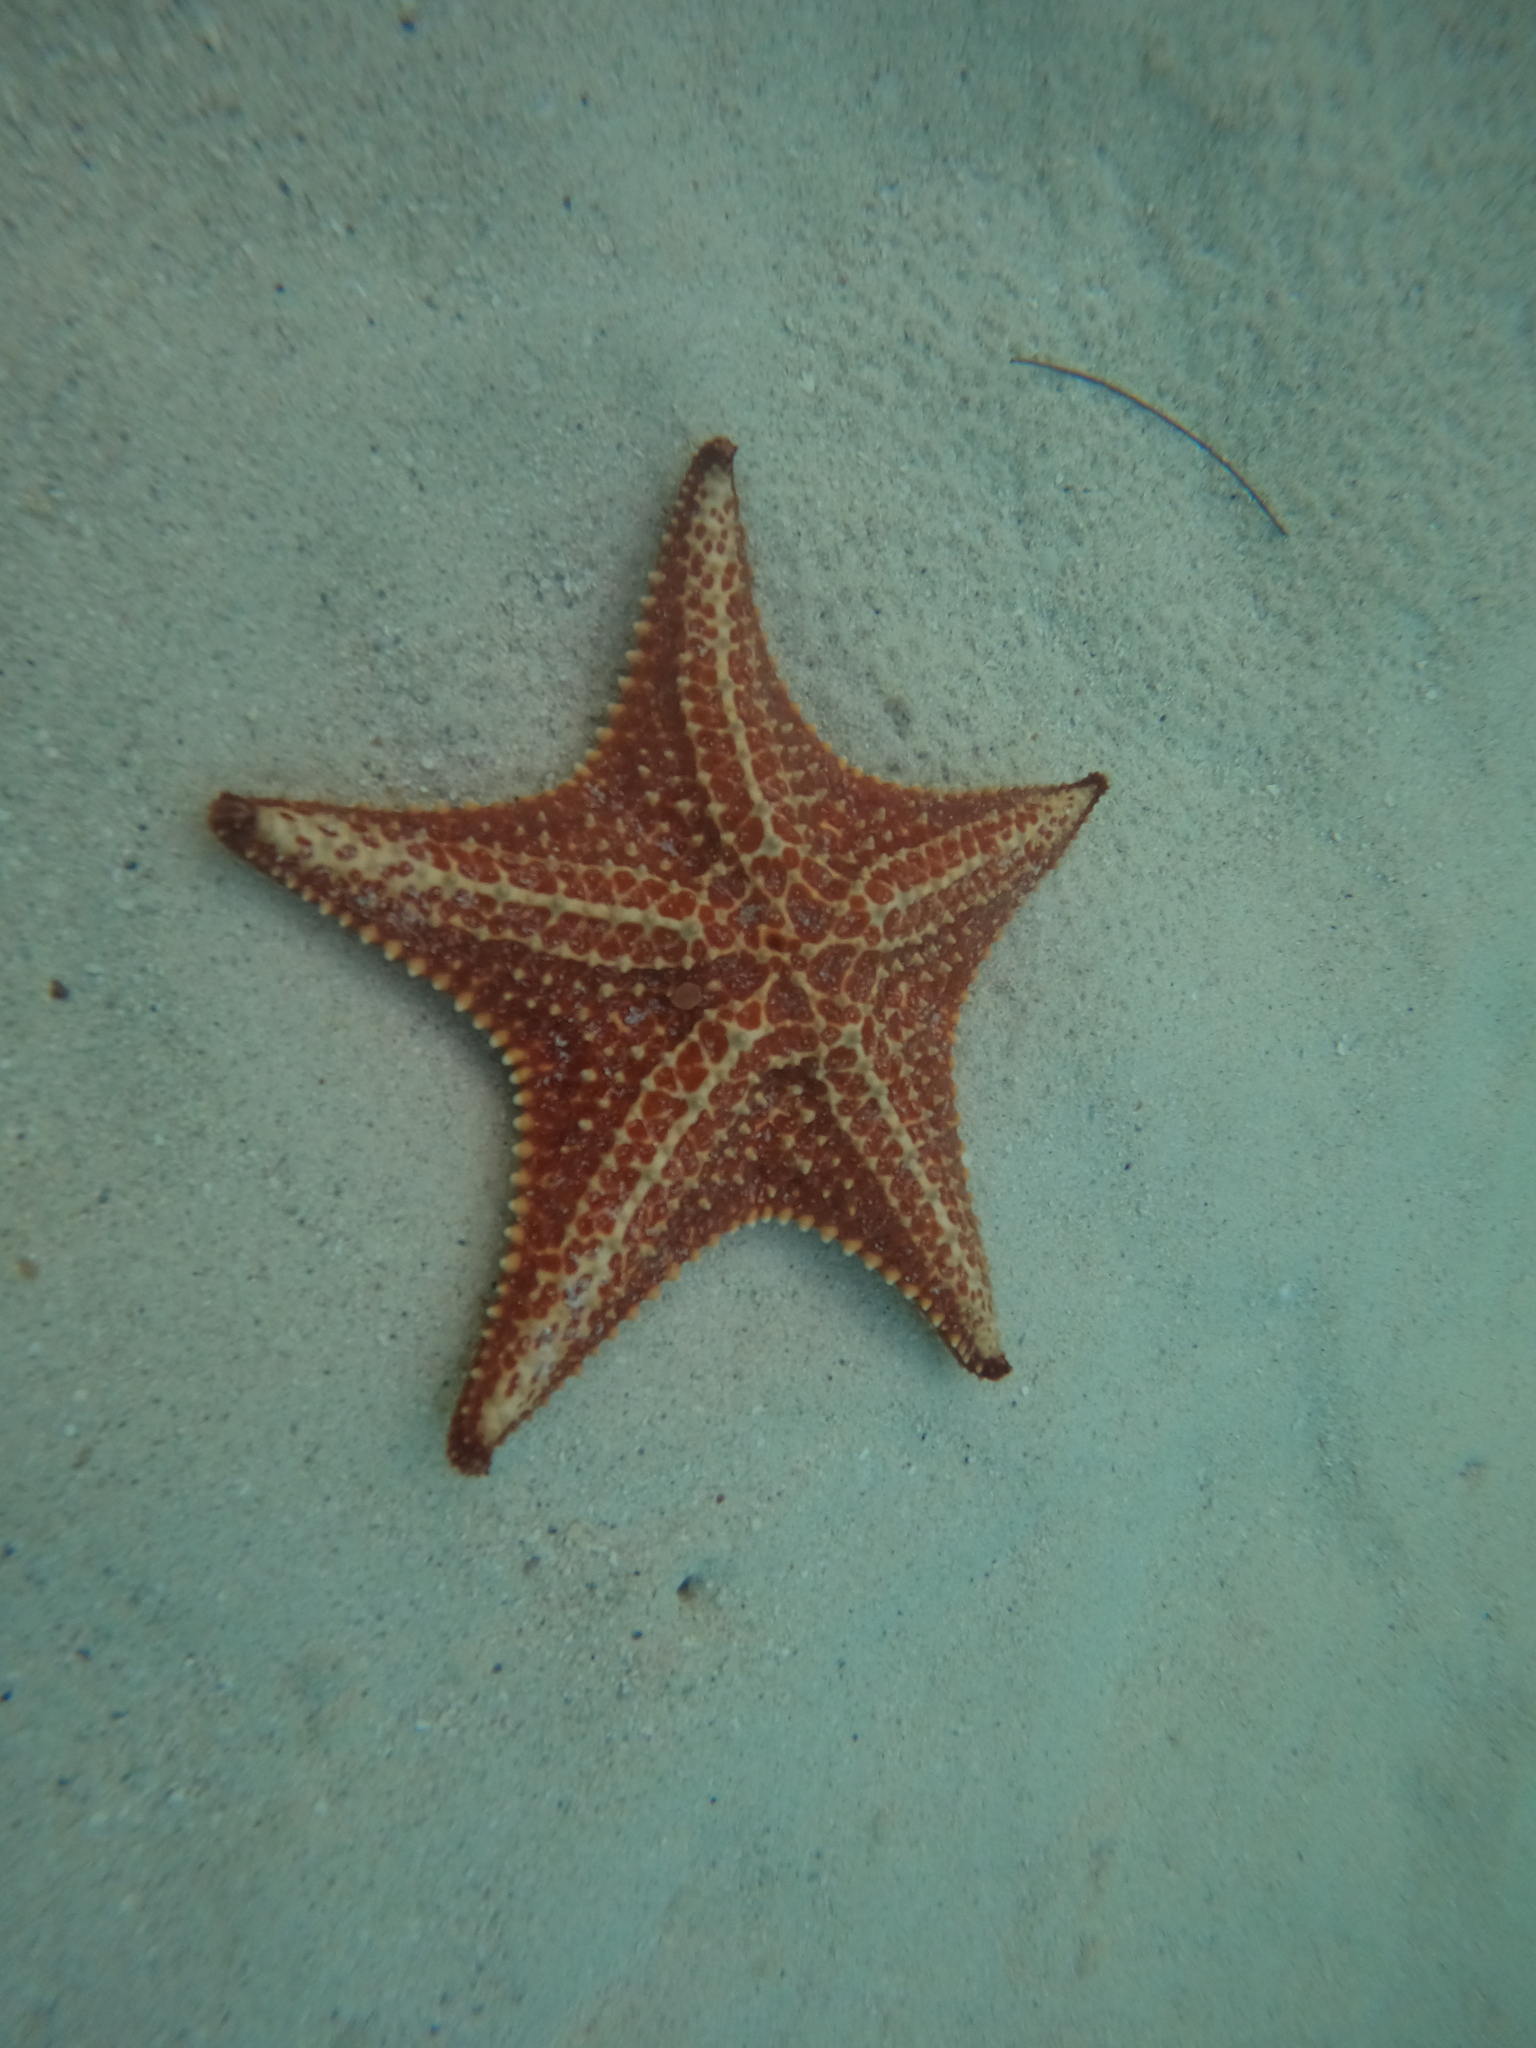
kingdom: Animalia
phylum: Echinodermata
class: Asteroidea
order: Valvatida
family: Oreasteridae
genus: Oreaster
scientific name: Oreaster reticulatus
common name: Cushion sea star
